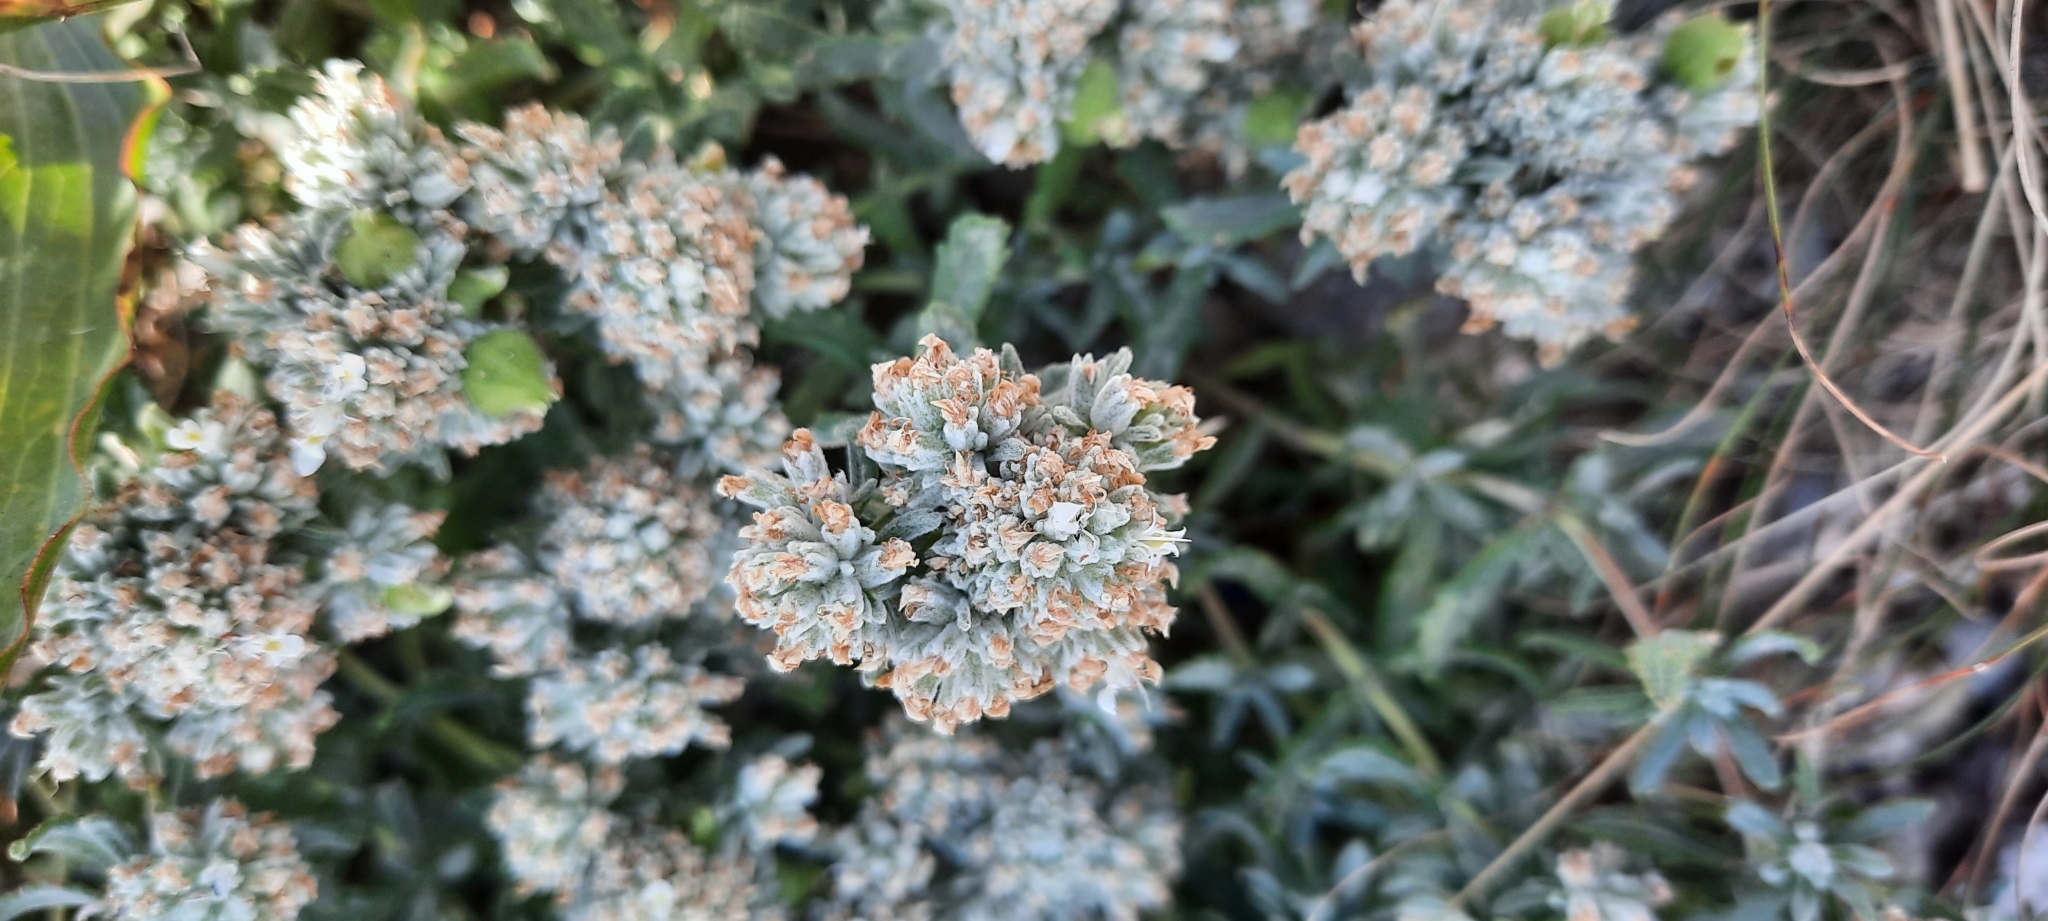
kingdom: Plantae
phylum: Tracheophyta
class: Magnoliopsida
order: Lamiales
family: Lamiaceae
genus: Teucrium
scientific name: Teucrium polium
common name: Poley
